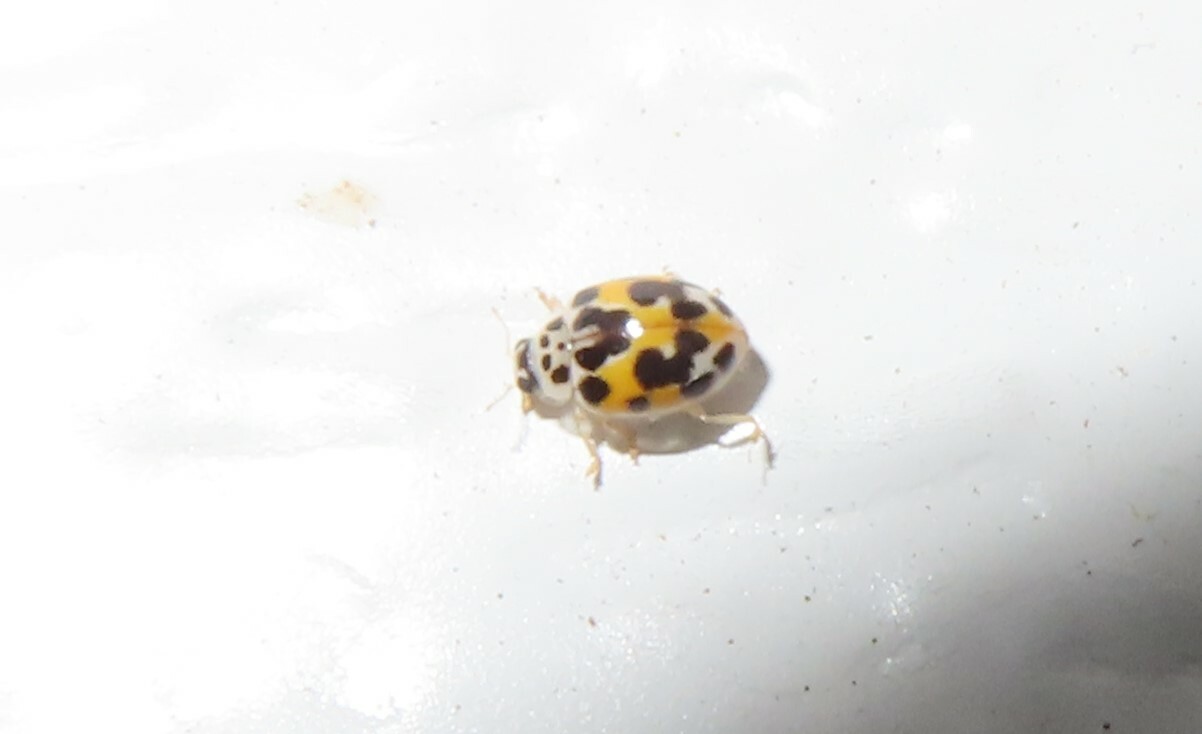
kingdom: Animalia
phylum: Arthropoda
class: Insecta
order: Coleoptera
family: Coccinellidae
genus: Psyllobora
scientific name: Psyllobora vigintimaculata
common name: Ladybird beetle
